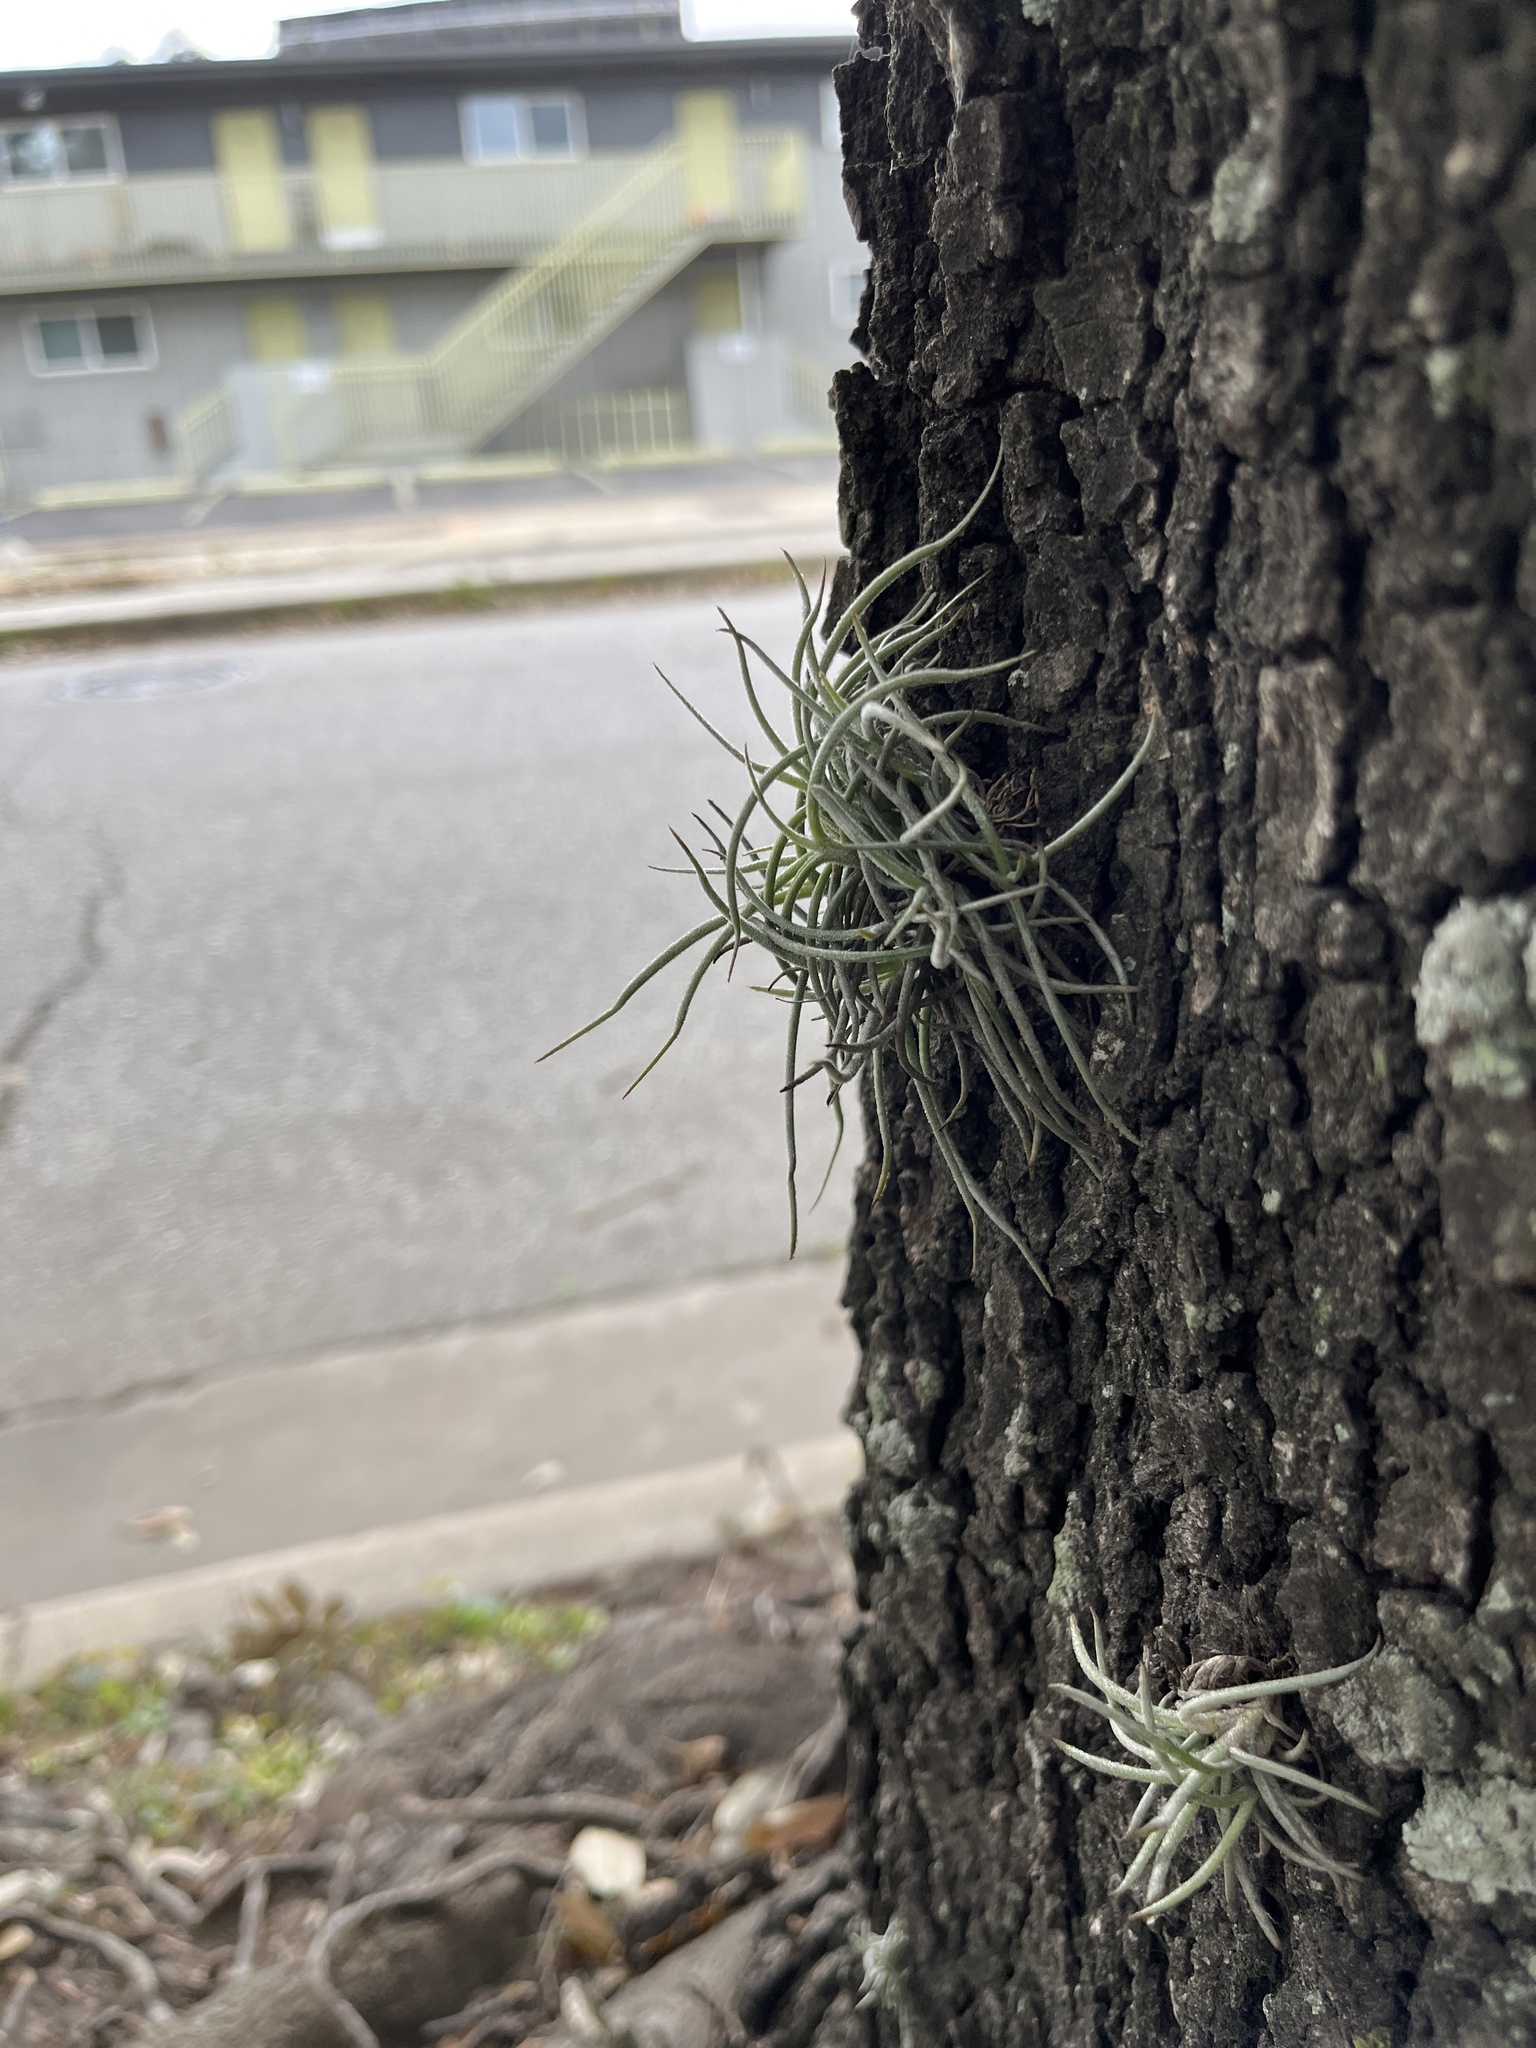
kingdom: Plantae
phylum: Tracheophyta
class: Liliopsida
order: Poales
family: Bromeliaceae
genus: Tillandsia
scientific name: Tillandsia recurvata
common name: Small ballmoss
